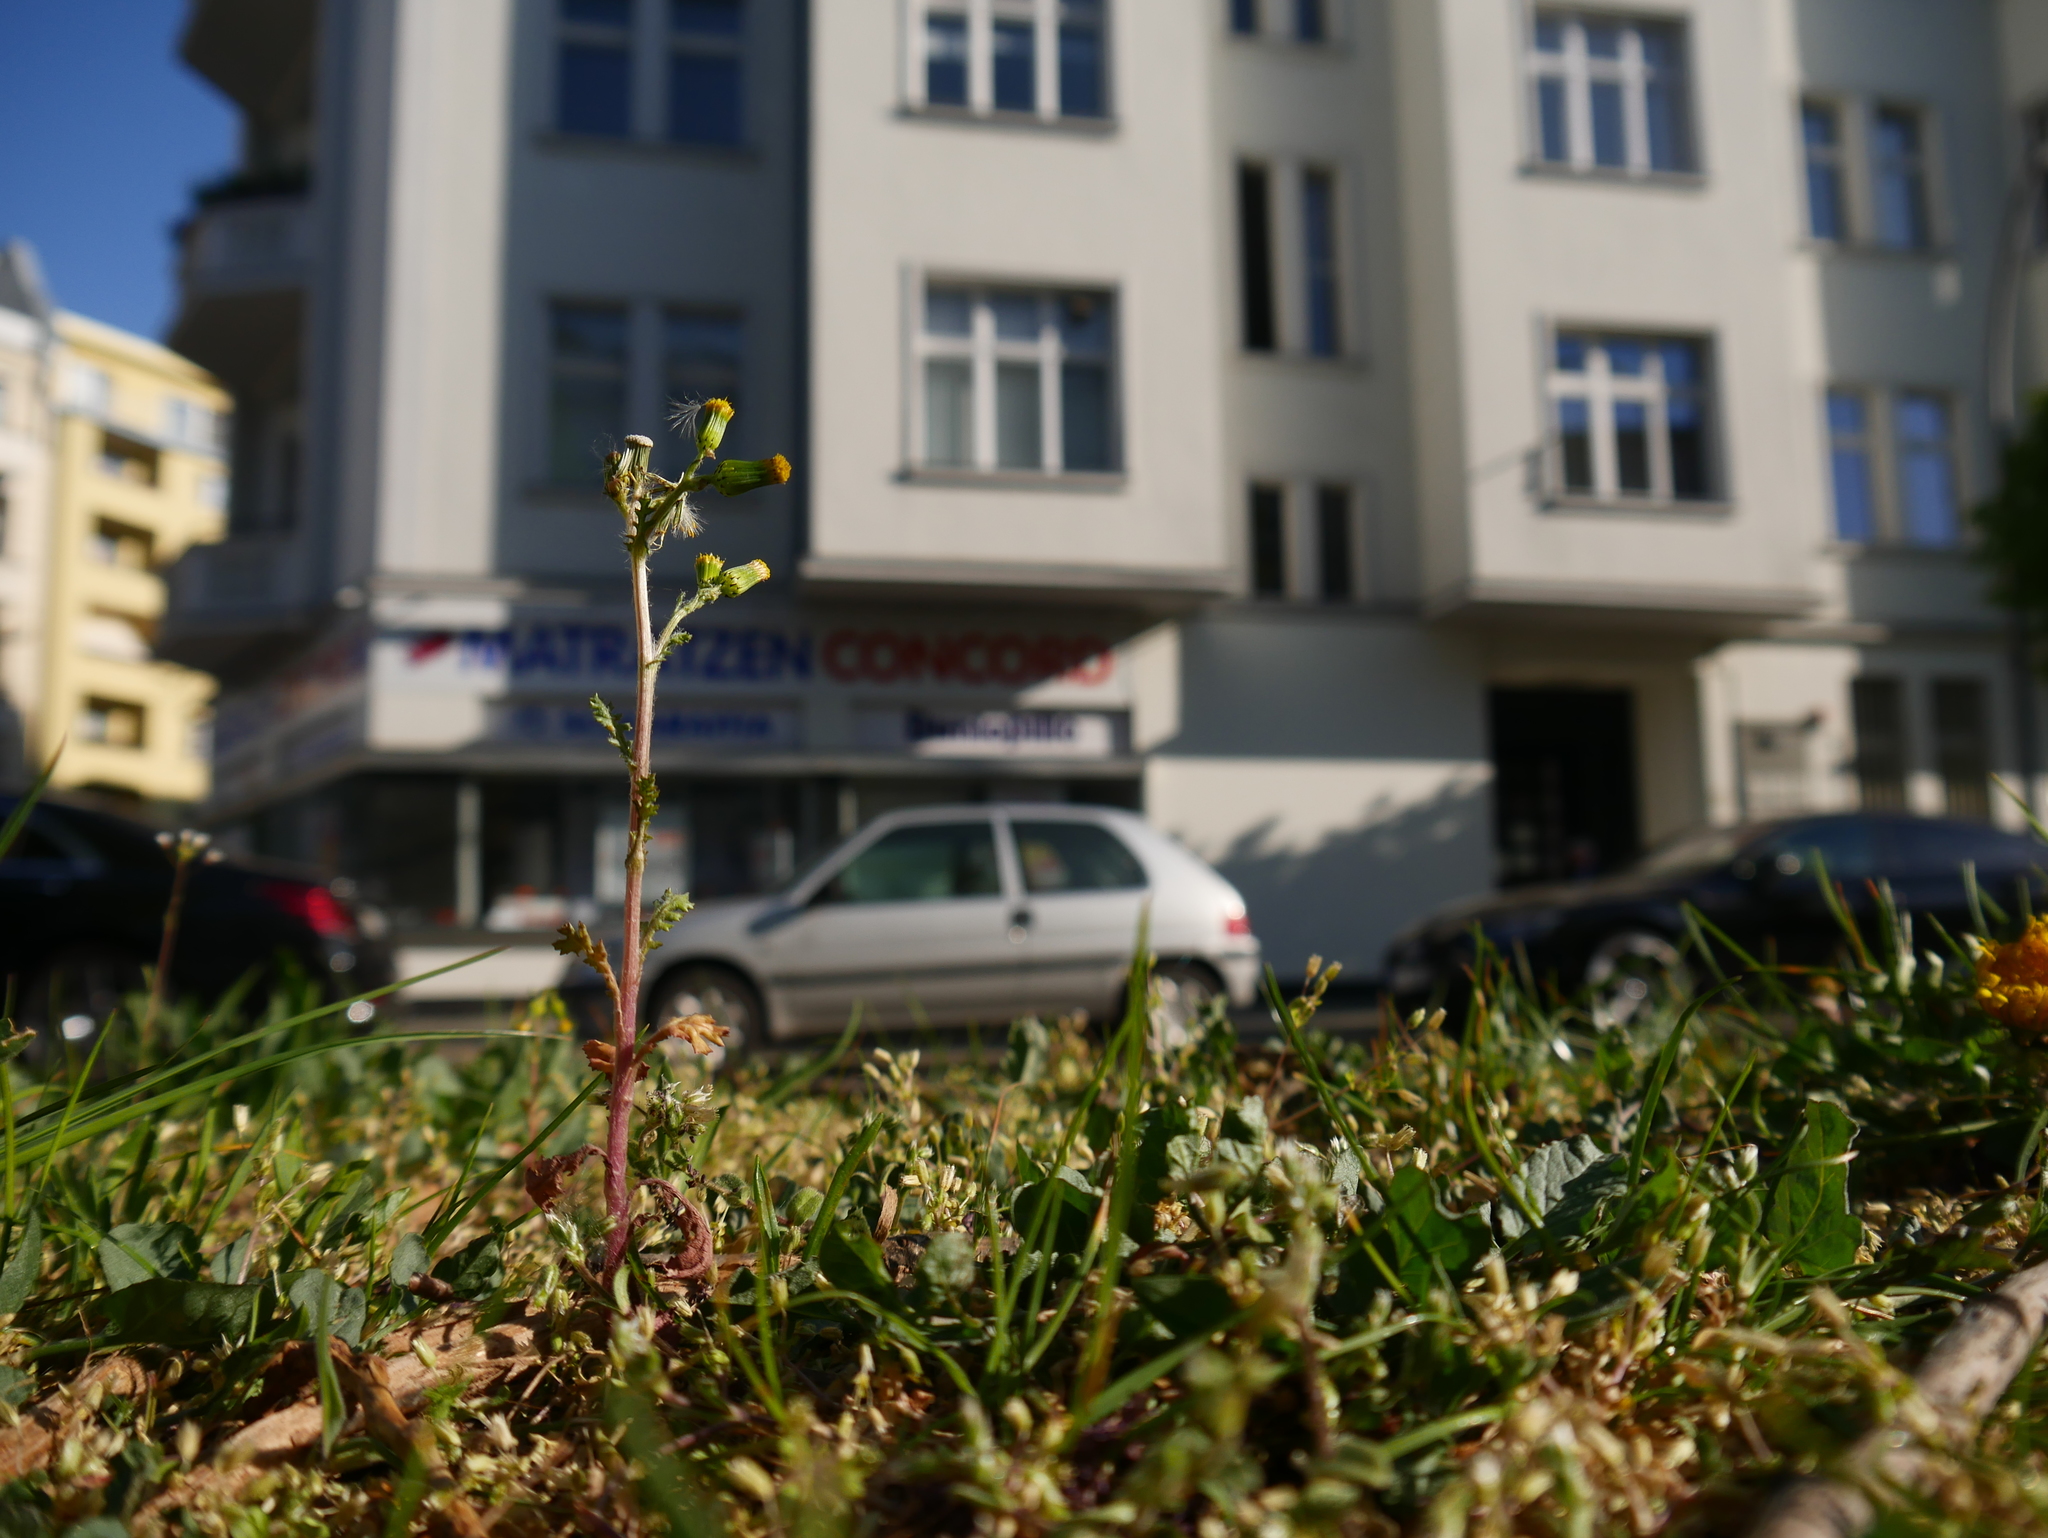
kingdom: Plantae
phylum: Tracheophyta
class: Magnoliopsida
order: Asterales
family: Asteraceae
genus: Senecio
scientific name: Senecio vulgaris
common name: Old-man-in-the-spring
